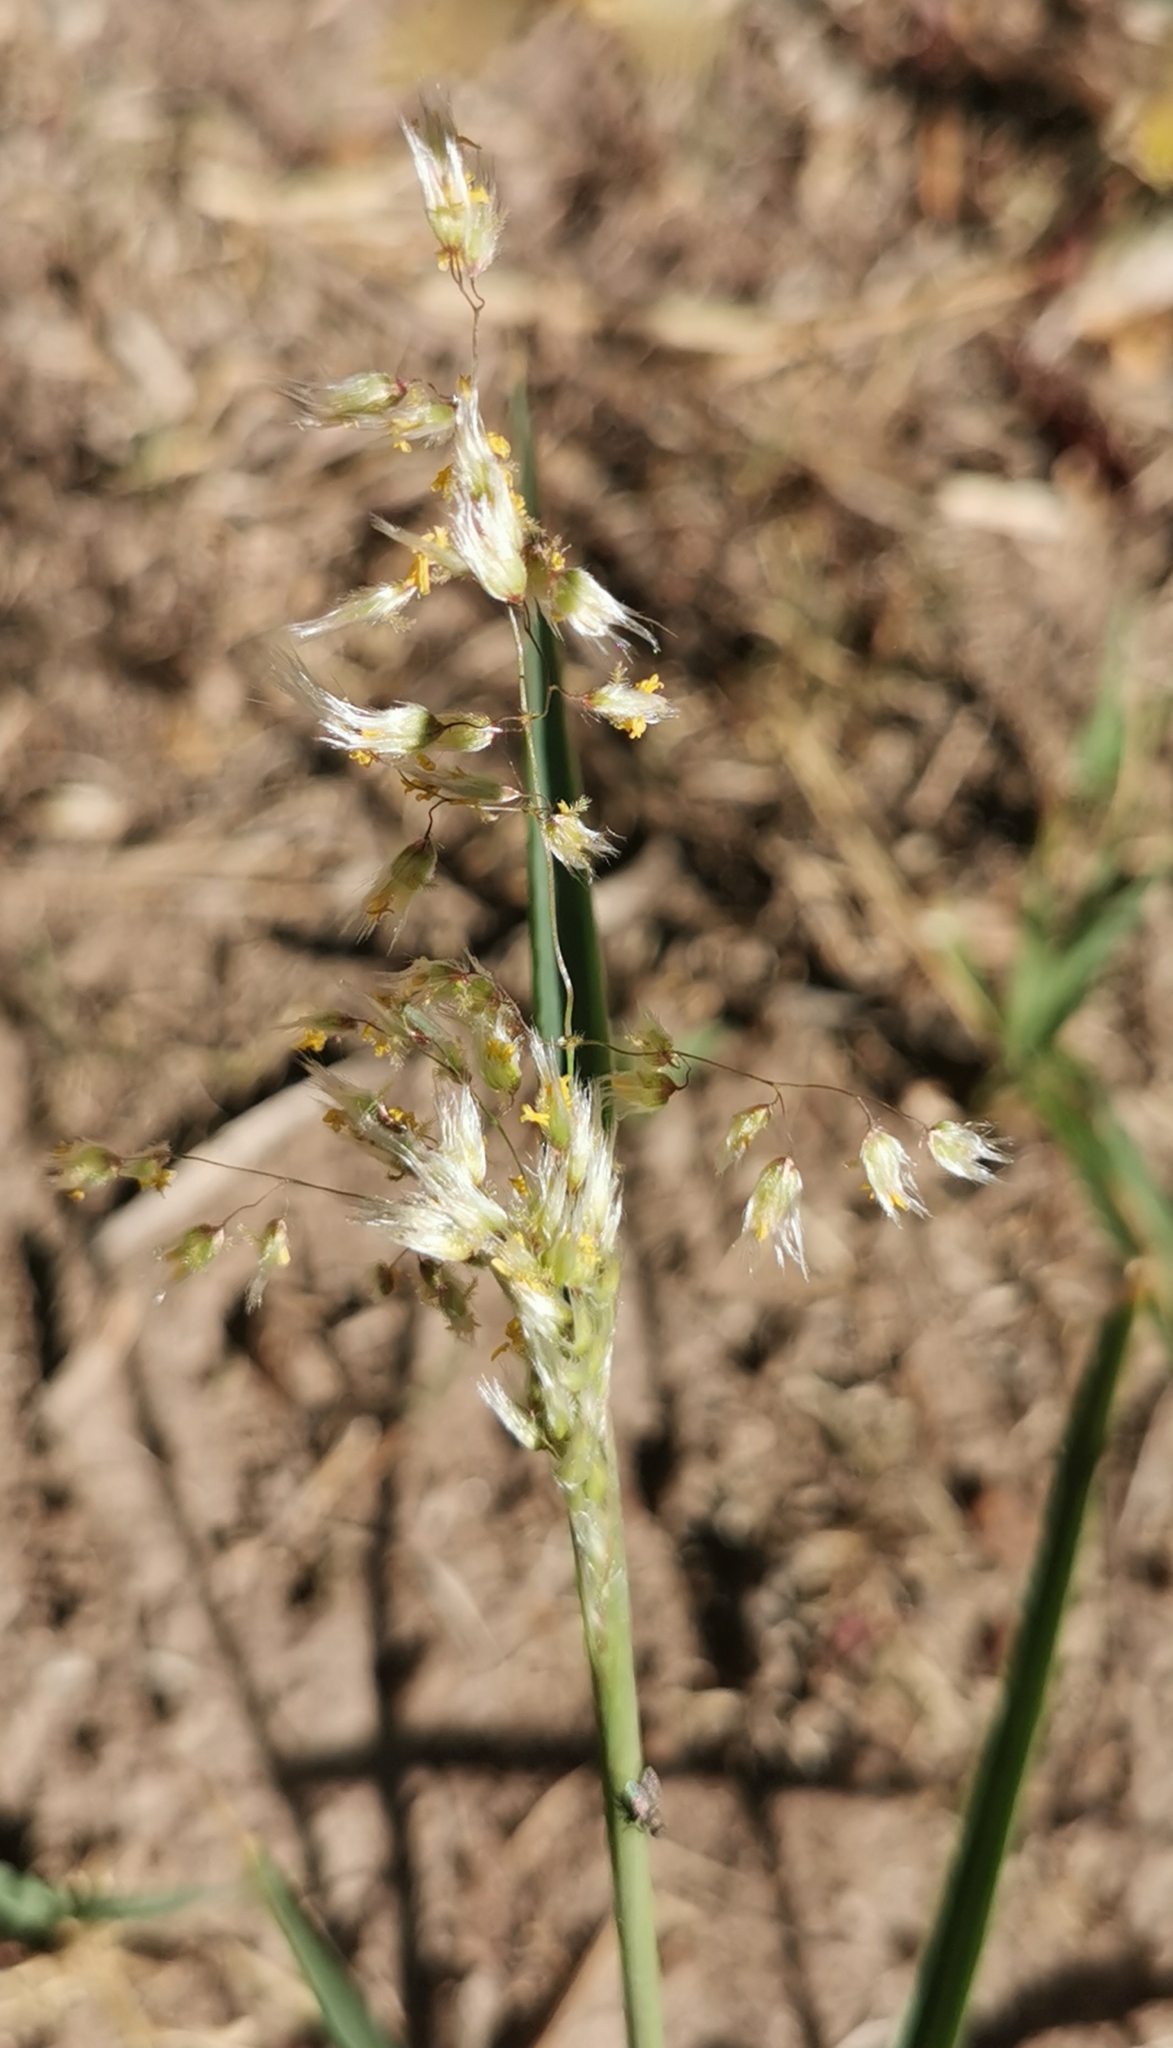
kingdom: Plantae
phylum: Tracheophyta
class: Liliopsida
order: Poales
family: Poaceae
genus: Melinis
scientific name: Melinis repens
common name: Rose natal grass
